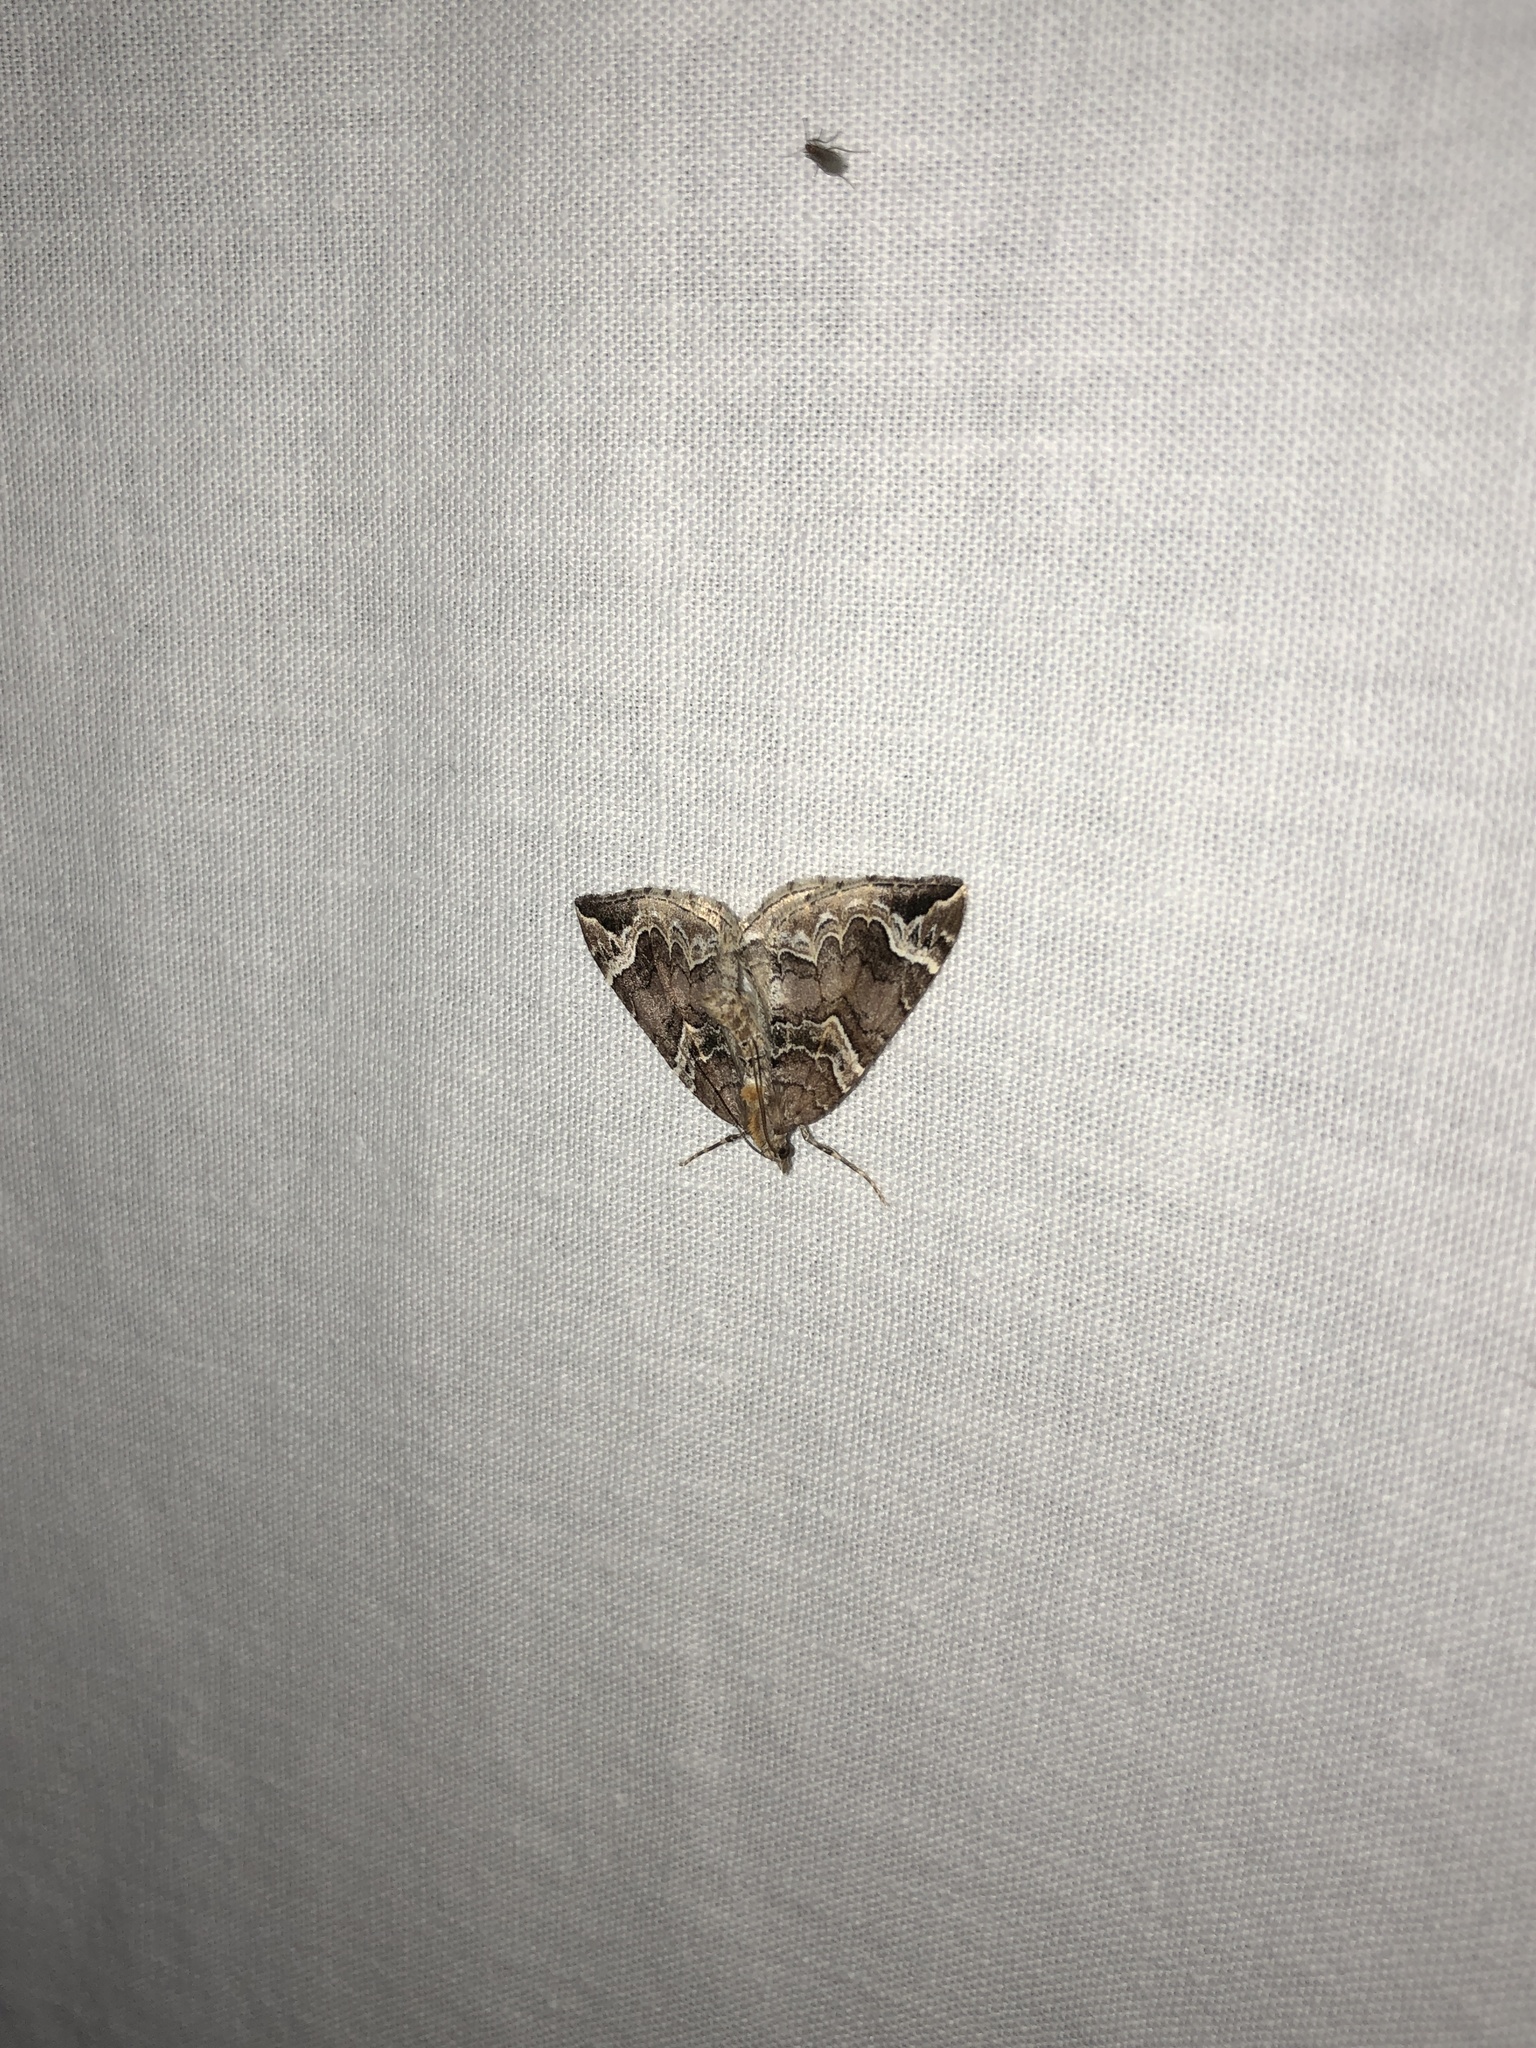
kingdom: Animalia
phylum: Arthropoda
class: Insecta
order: Lepidoptera
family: Geometridae
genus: Eulithis
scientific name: Eulithis xylina
